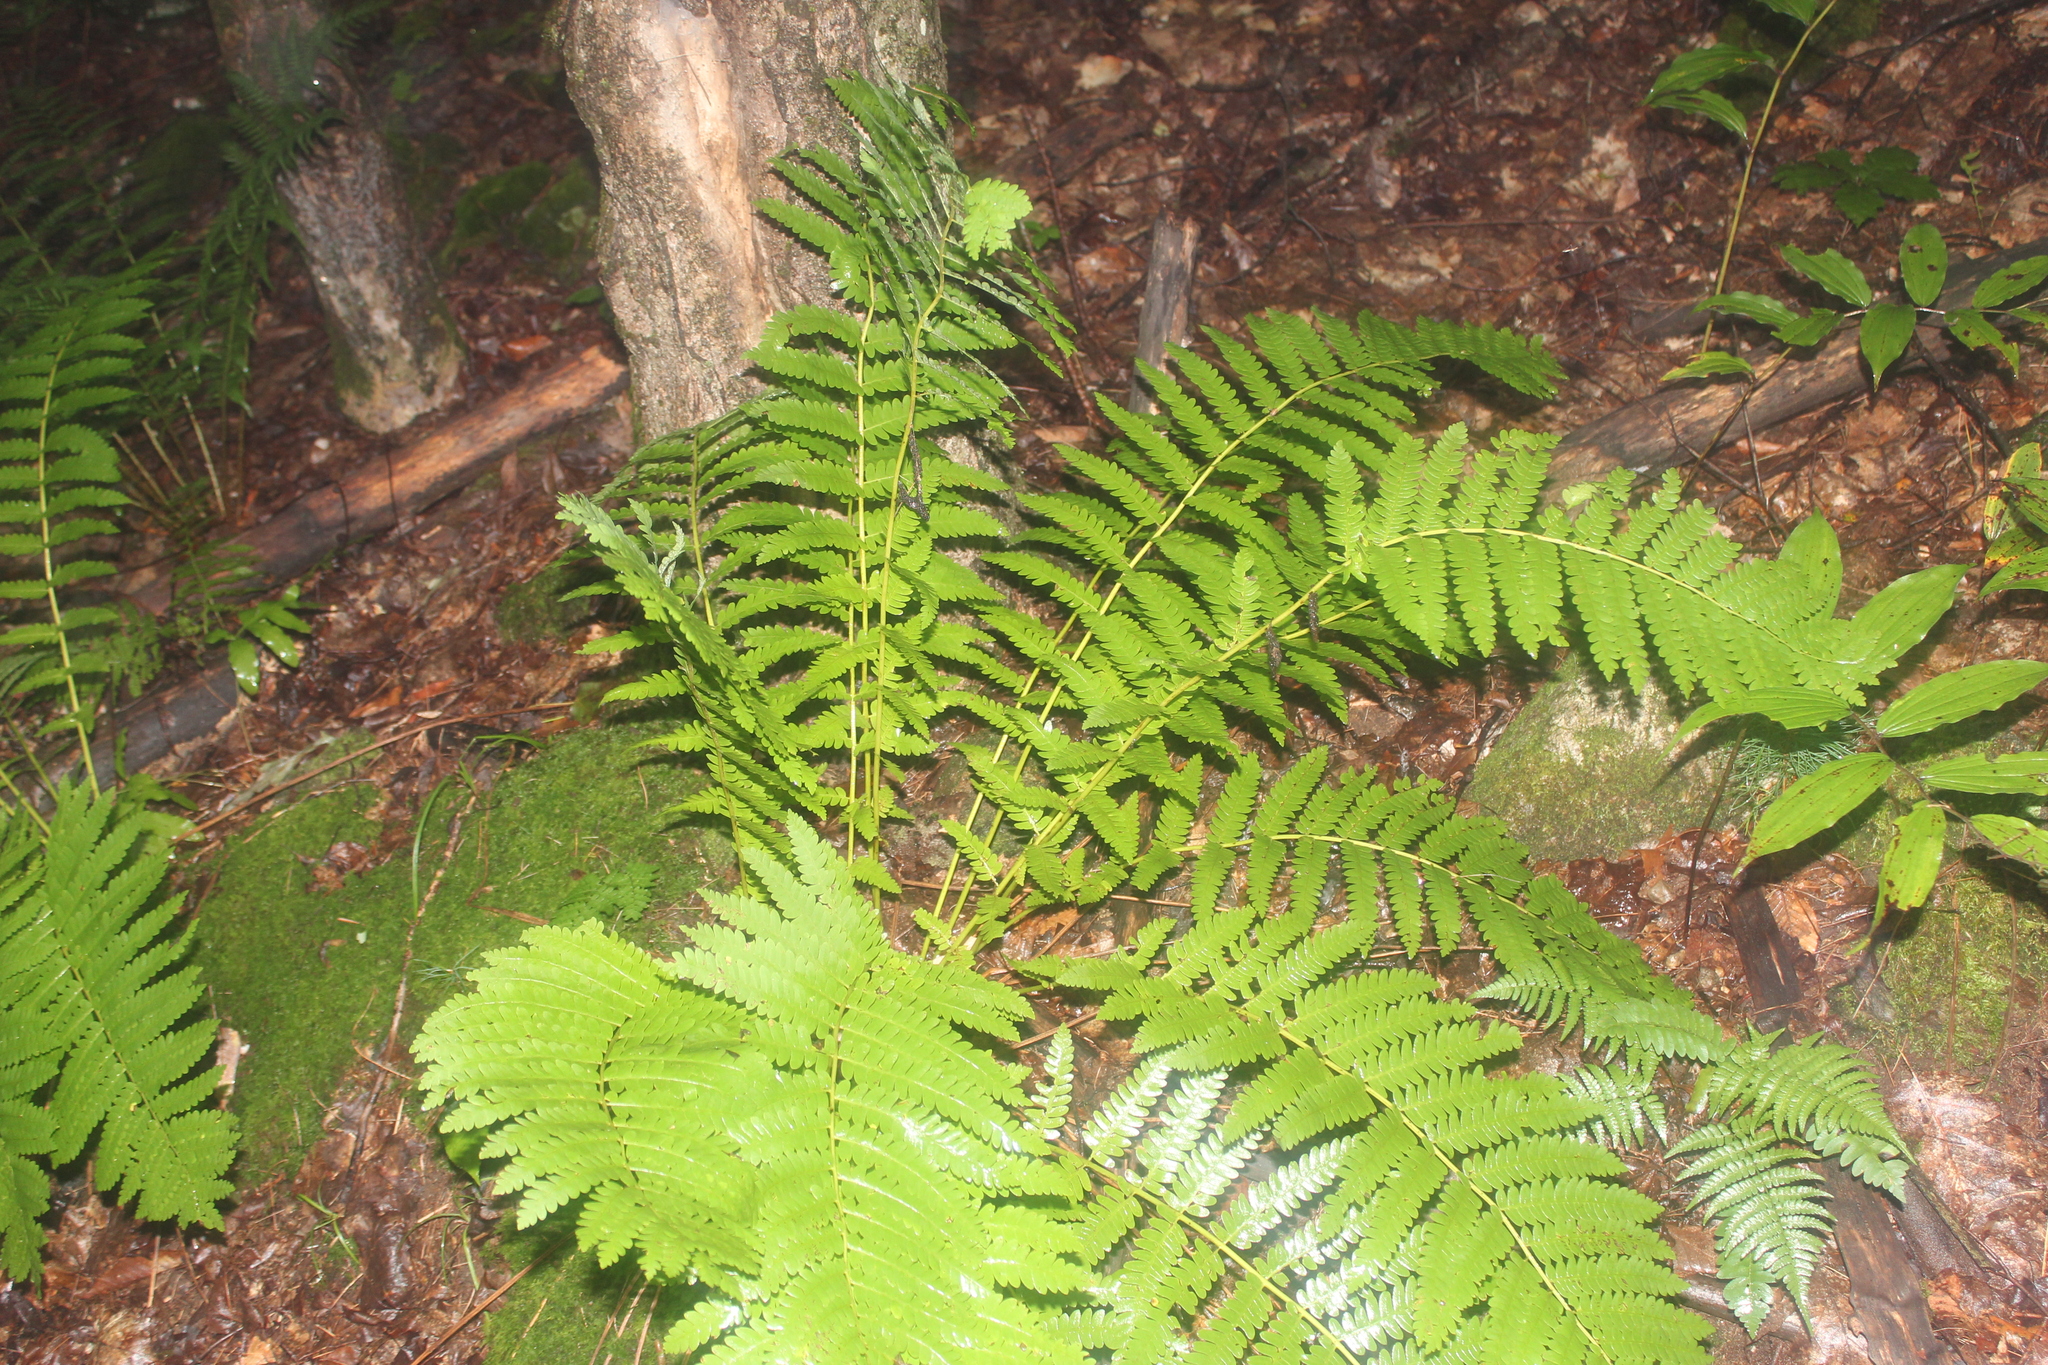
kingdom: Plantae
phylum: Tracheophyta
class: Polypodiopsida
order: Osmundales
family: Osmundaceae
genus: Claytosmunda
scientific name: Claytosmunda claytoniana
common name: Clayton's fern
